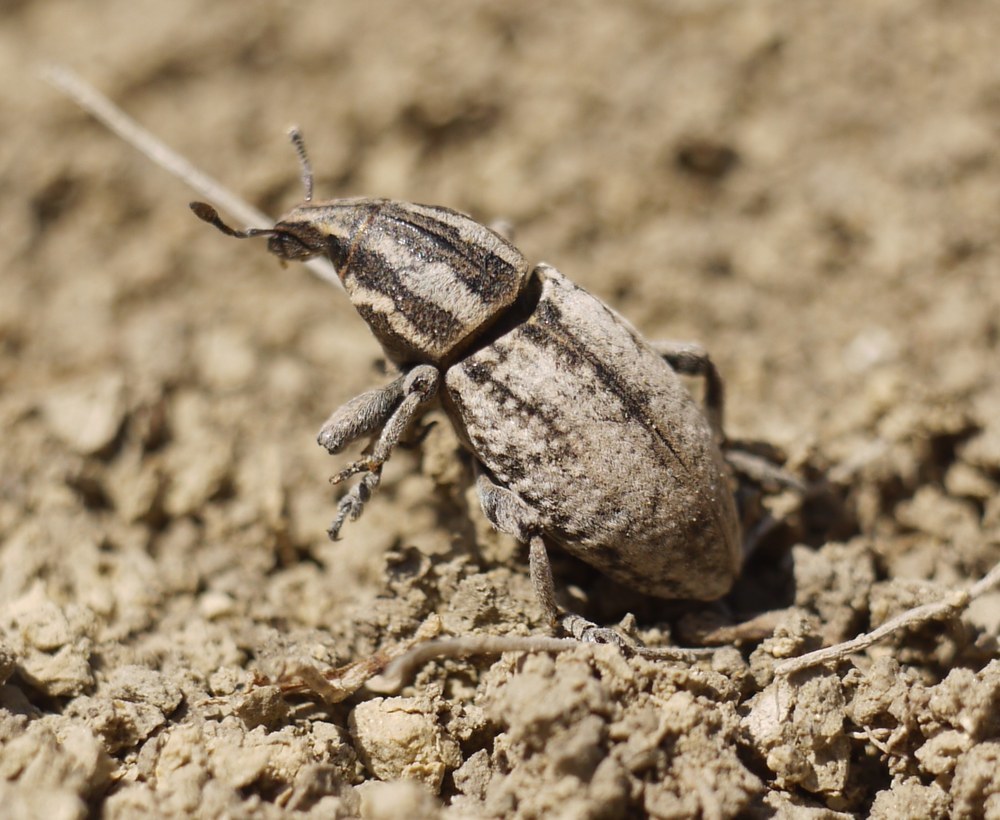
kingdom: Animalia
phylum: Arthropoda
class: Insecta
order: Coleoptera
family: Curculionidae
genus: Pseudocleonus
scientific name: Pseudocleonus cinereus
